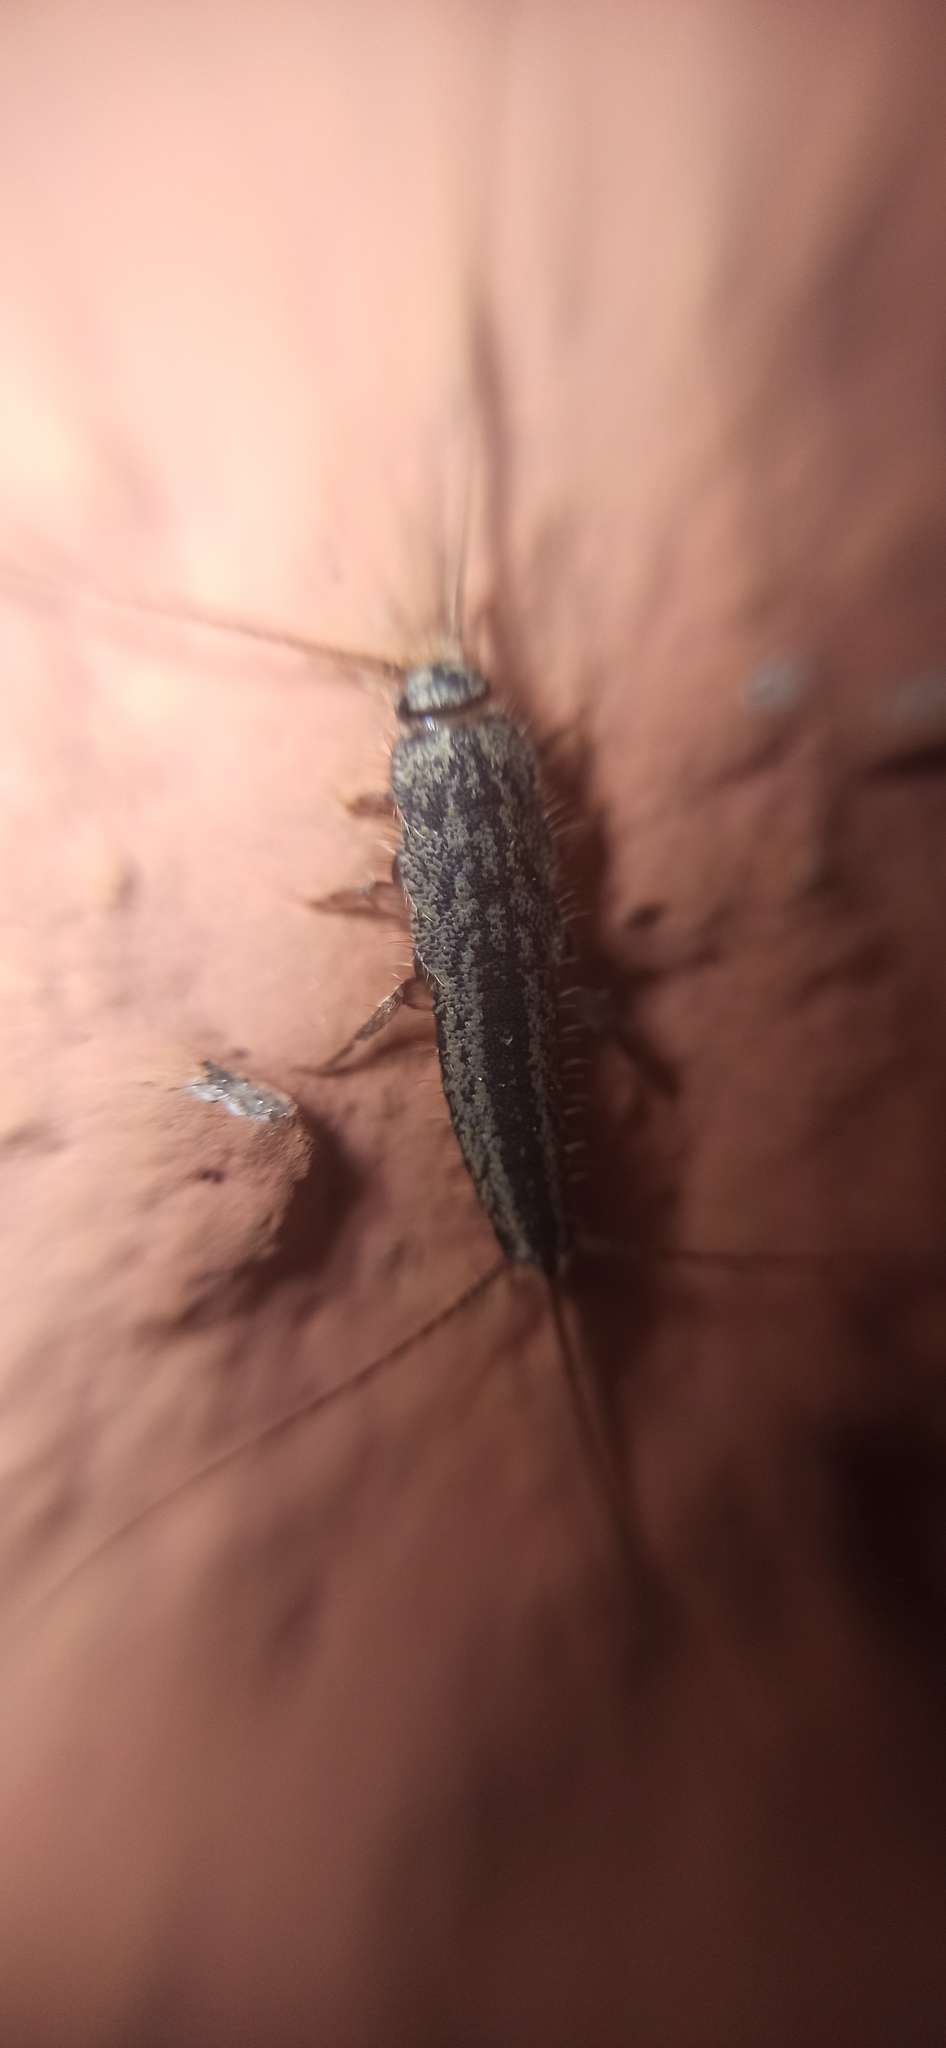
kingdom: Animalia
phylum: Arthropoda
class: Insecta
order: Zygentoma
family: Lepismatidae
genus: Ctenolepisma
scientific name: Ctenolepisma lineata
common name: Four-lined silverfish
